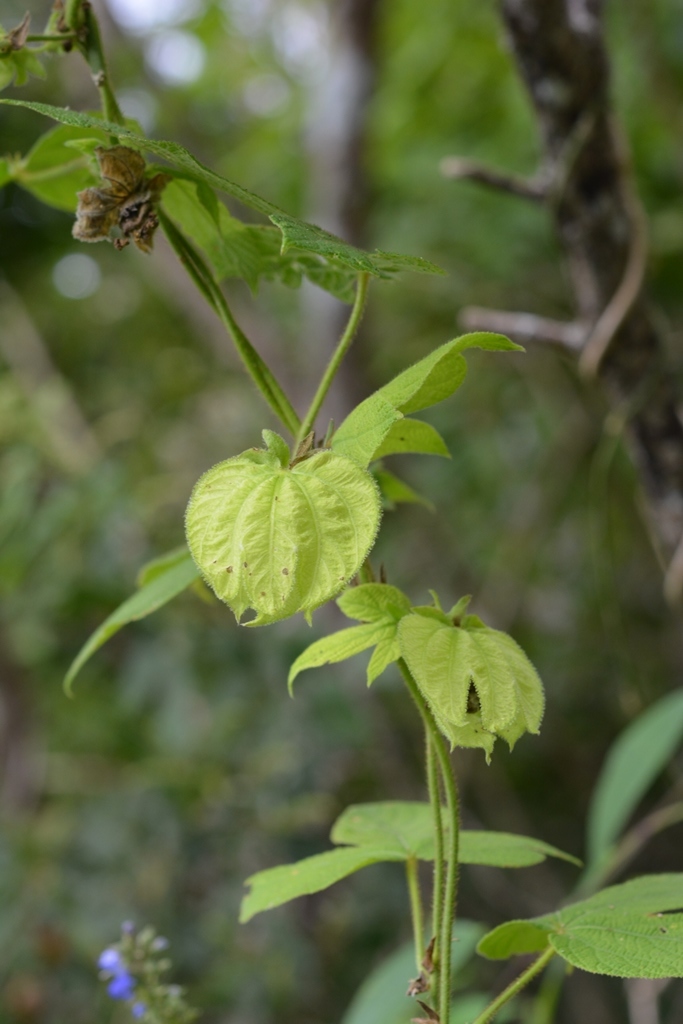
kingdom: Plantae
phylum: Tracheophyta
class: Magnoliopsida
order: Malpighiales
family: Euphorbiaceae
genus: Dalechampia
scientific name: Dalechampia scandens
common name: Spurgecreeper
